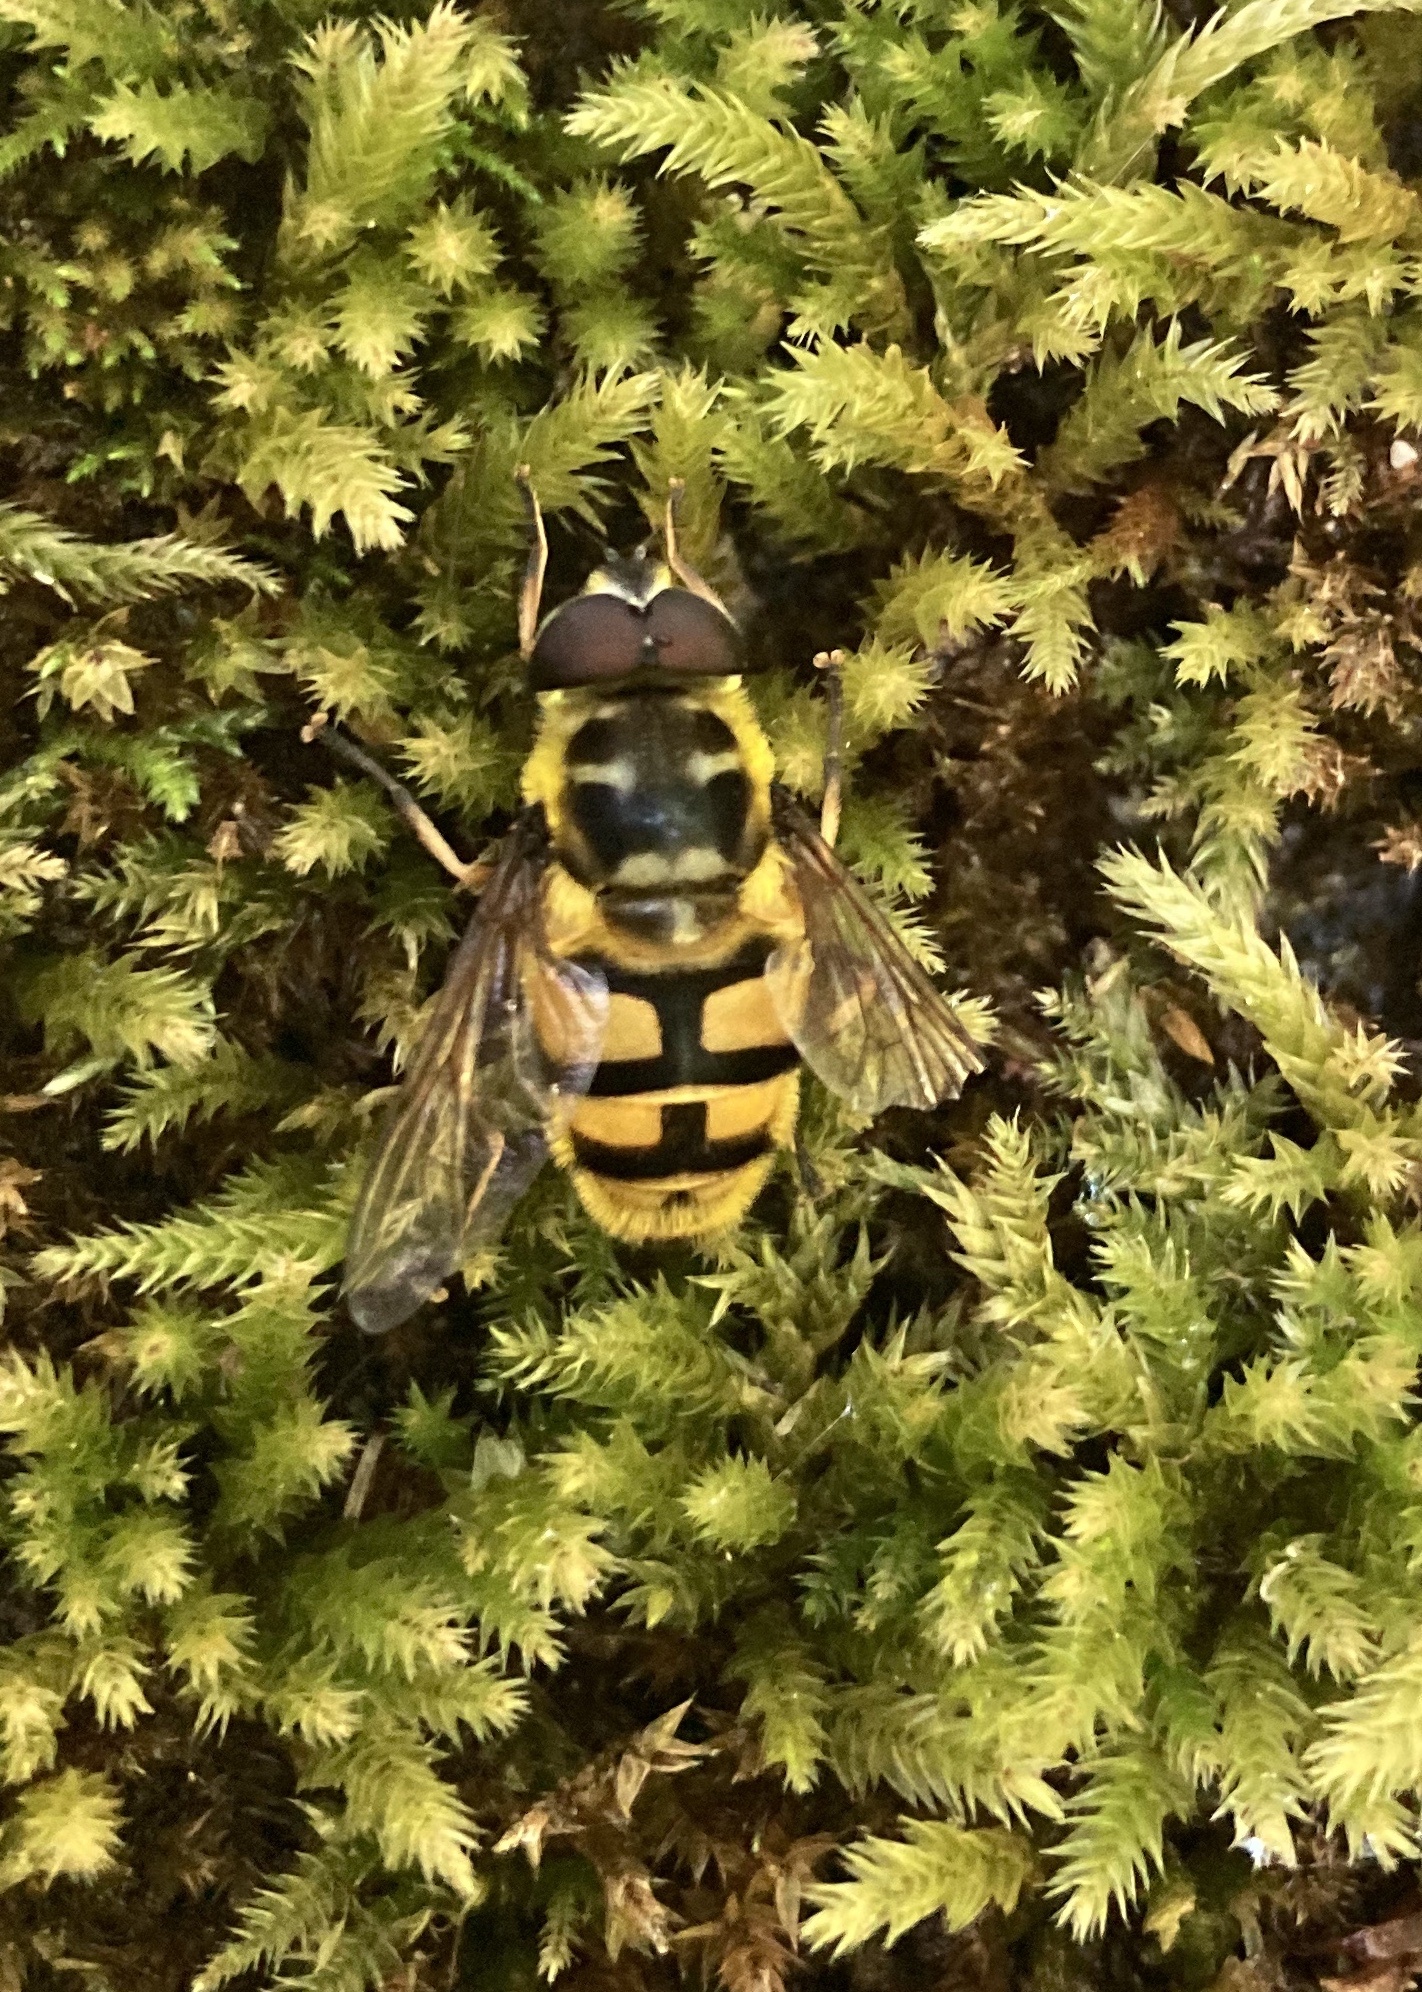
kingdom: Animalia
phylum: Arthropoda
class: Insecta
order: Diptera
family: Syrphidae
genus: Myathropa
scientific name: Myathropa florea
